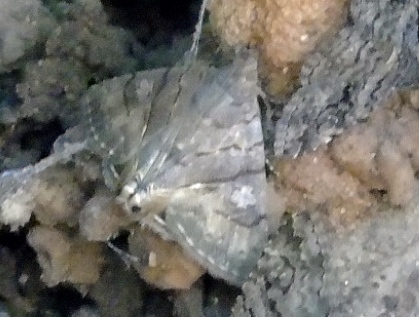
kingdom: Animalia
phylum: Arthropoda
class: Insecta
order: Lepidoptera
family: Erebidae
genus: Eulepidotis
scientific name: Eulepidotis
